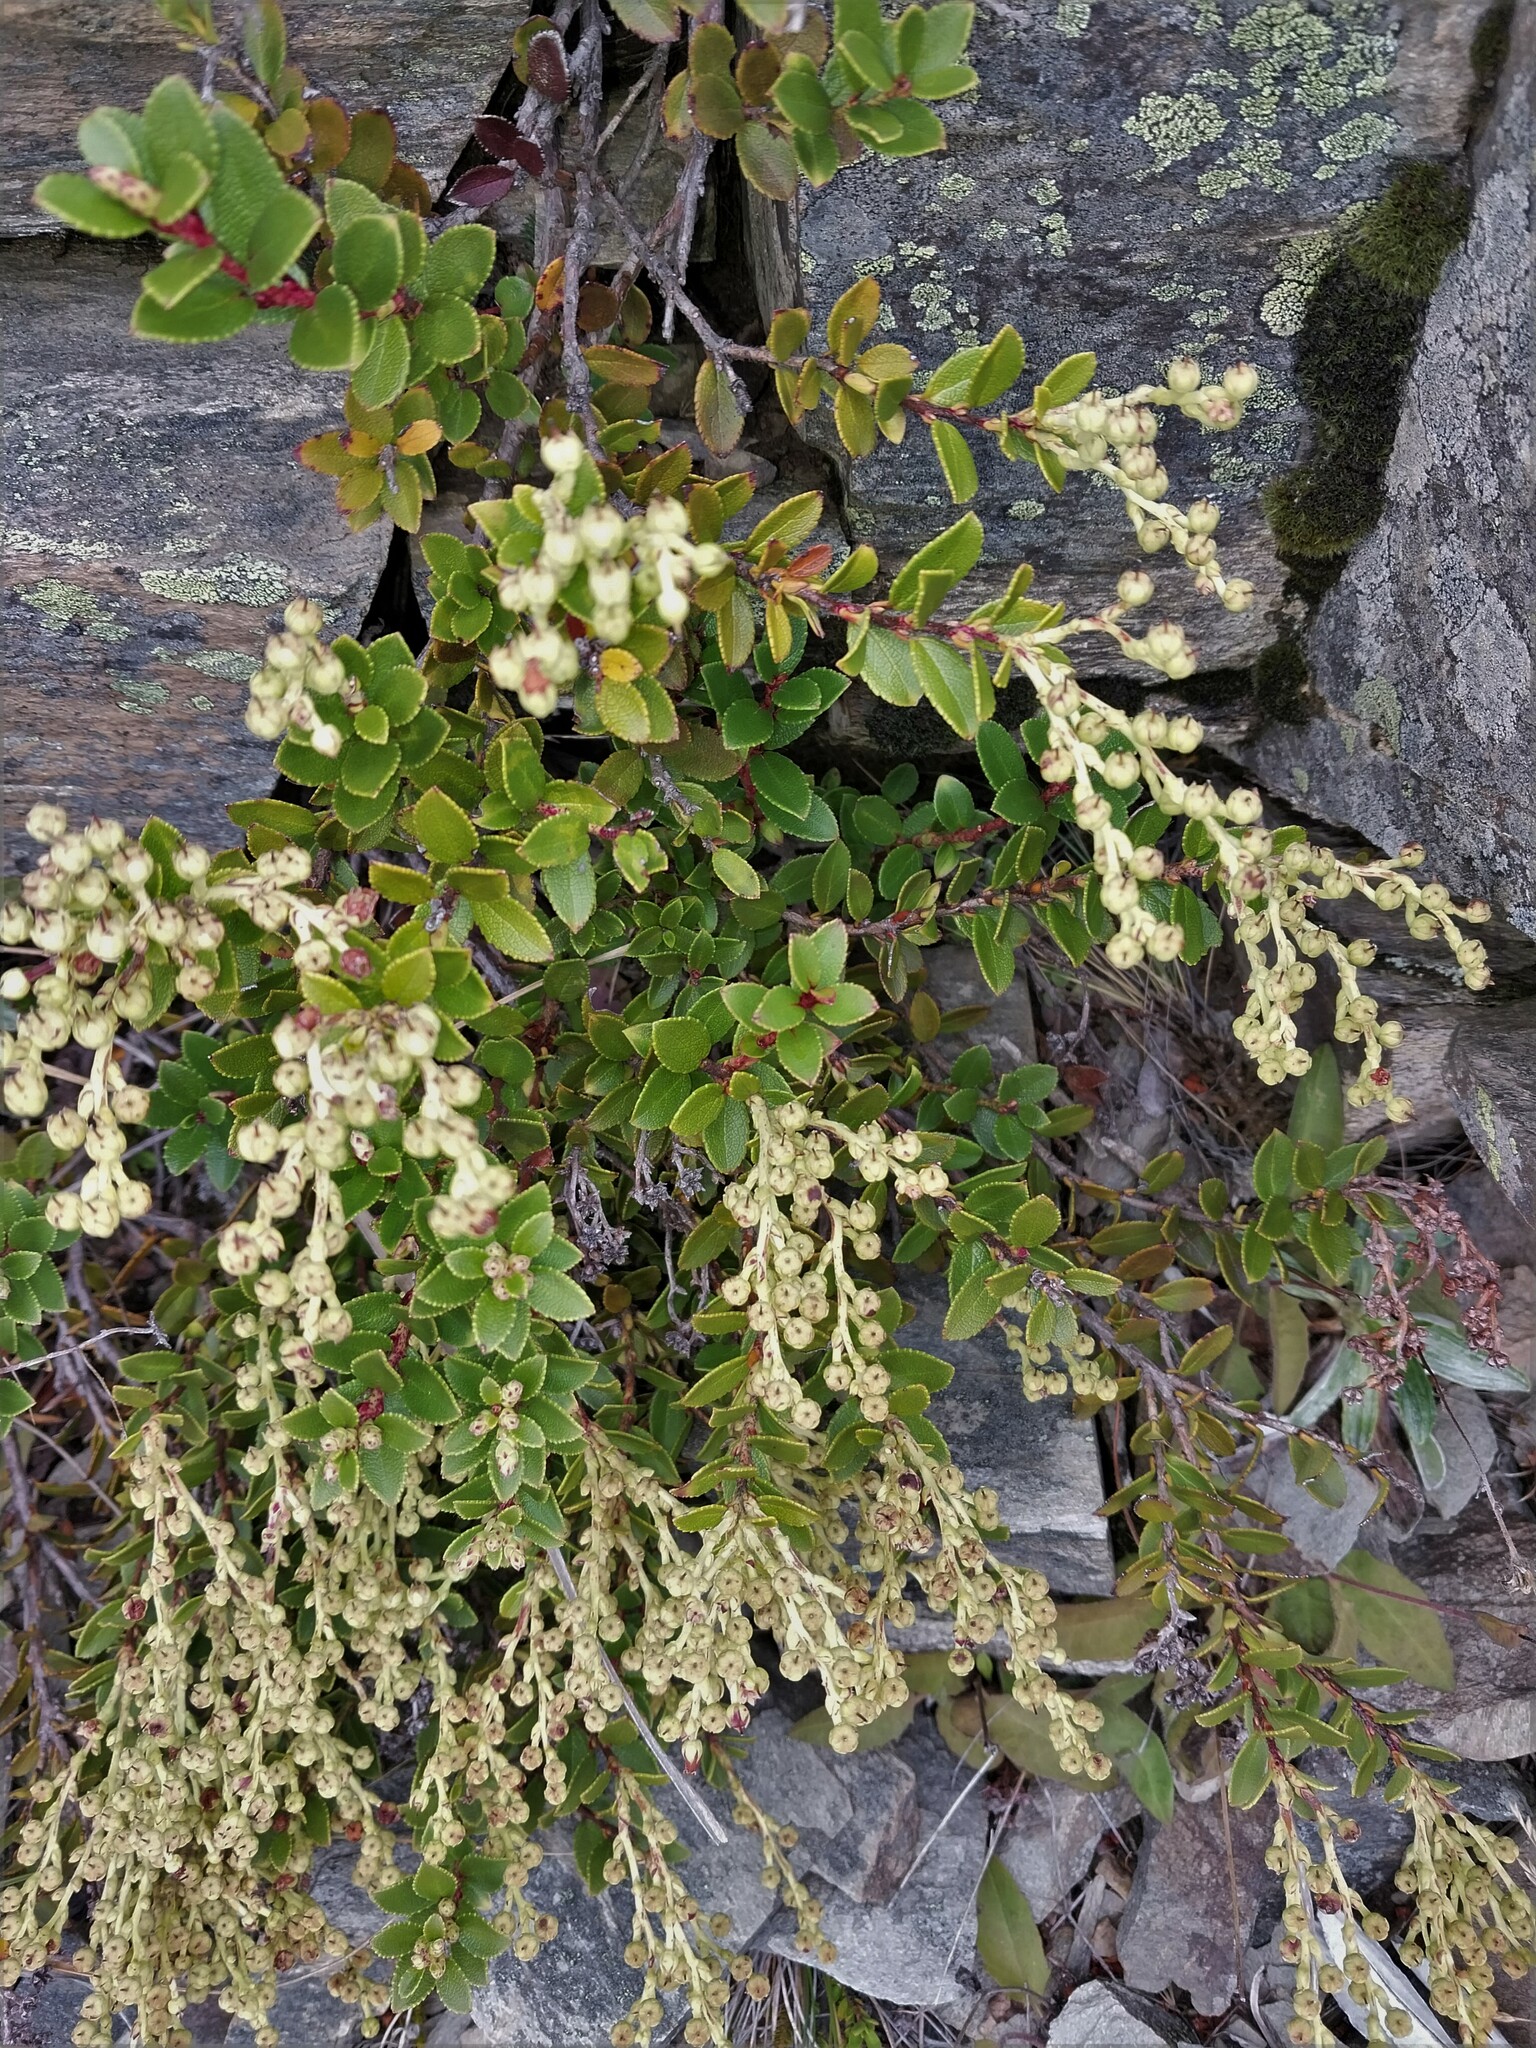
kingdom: Plantae
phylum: Tracheophyta
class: Magnoliopsida
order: Ericales
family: Ericaceae
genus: Gaultheria
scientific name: Gaultheria crassa
